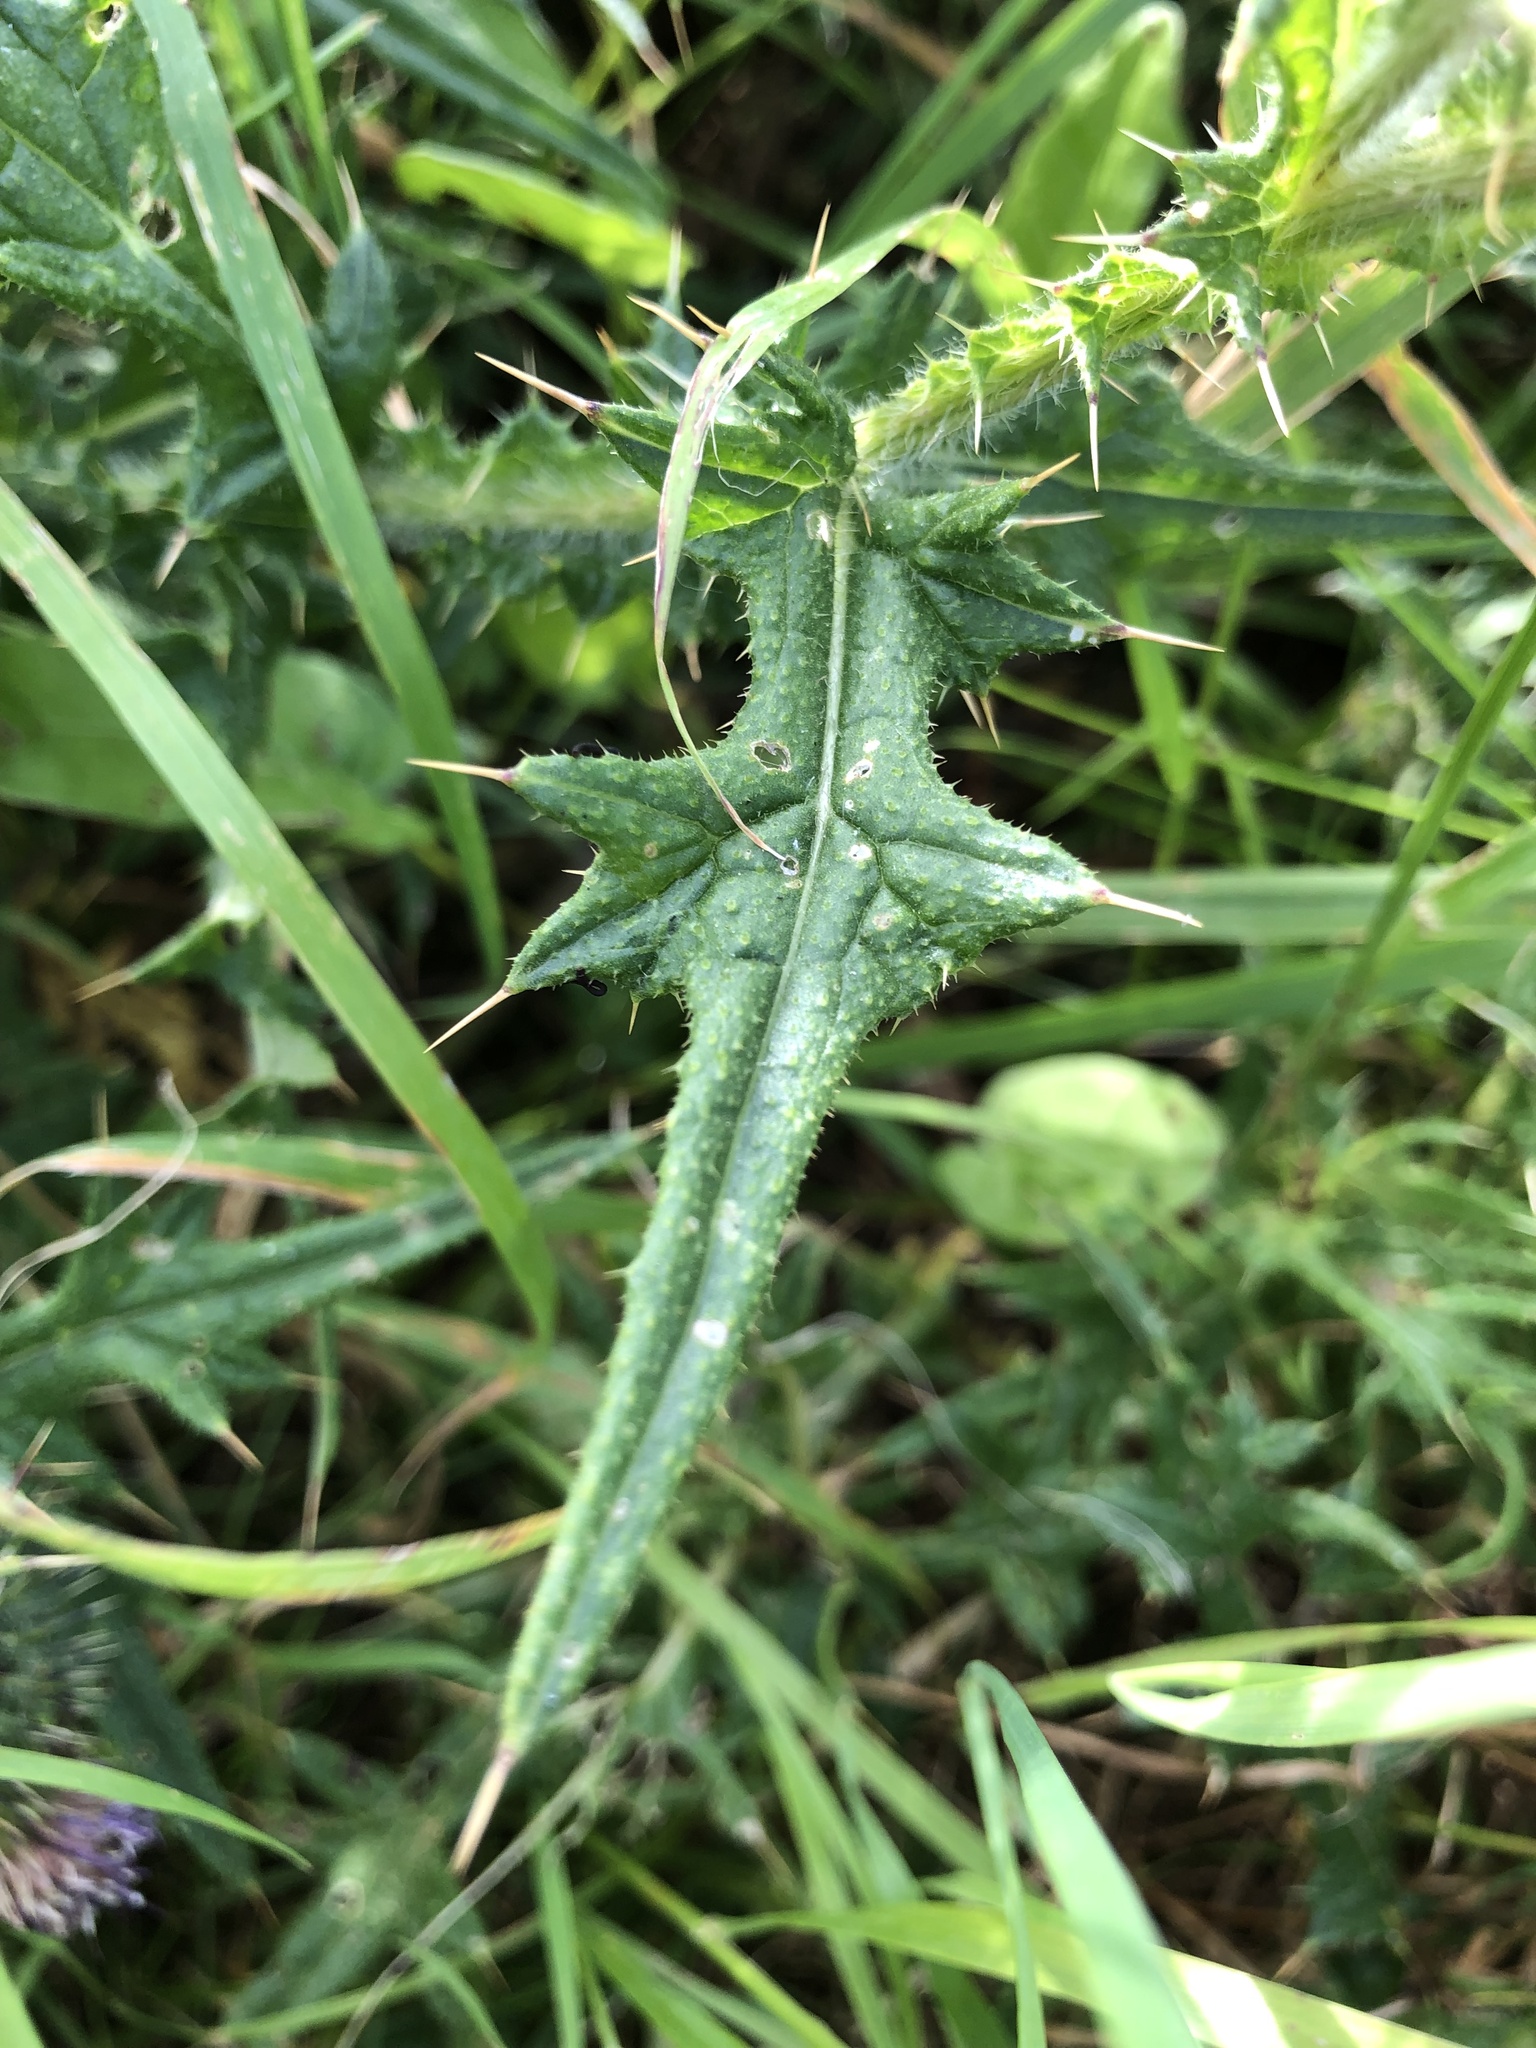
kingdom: Plantae
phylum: Tracheophyta
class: Magnoliopsida
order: Asterales
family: Asteraceae
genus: Cirsium
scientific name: Cirsium vulgare
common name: Bull thistle
